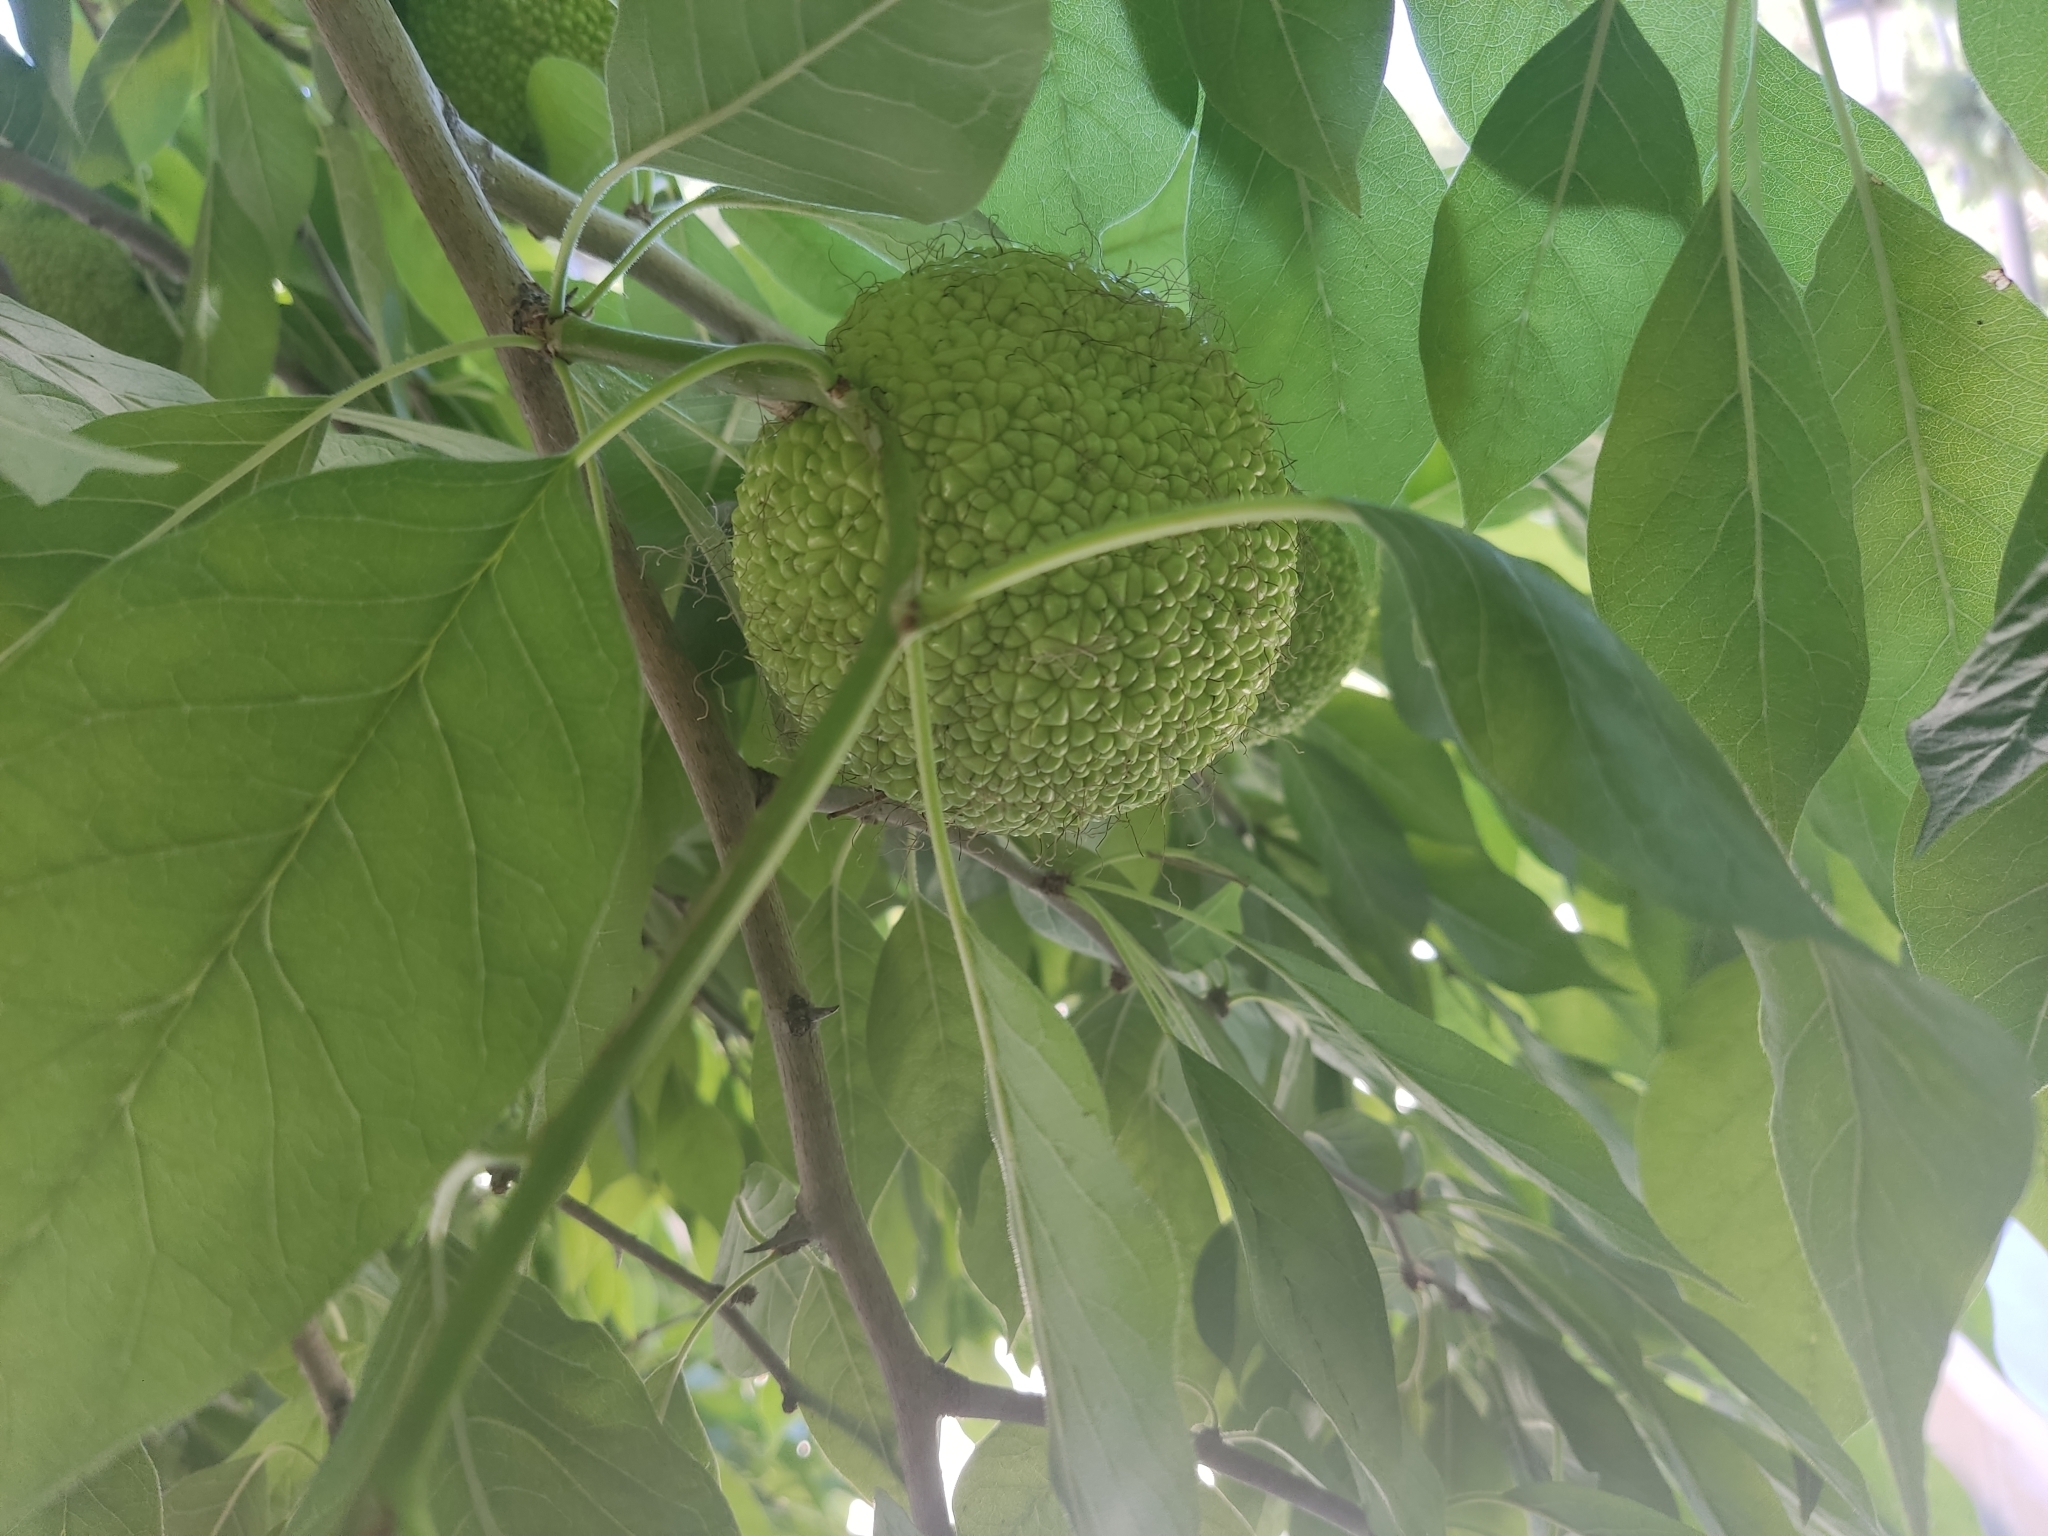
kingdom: Plantae
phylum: Tracheophyta
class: Magnoliopsida
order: Rosales
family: Moraceae
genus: Maclura
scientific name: Maclura pomifera
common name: Osage-orange
